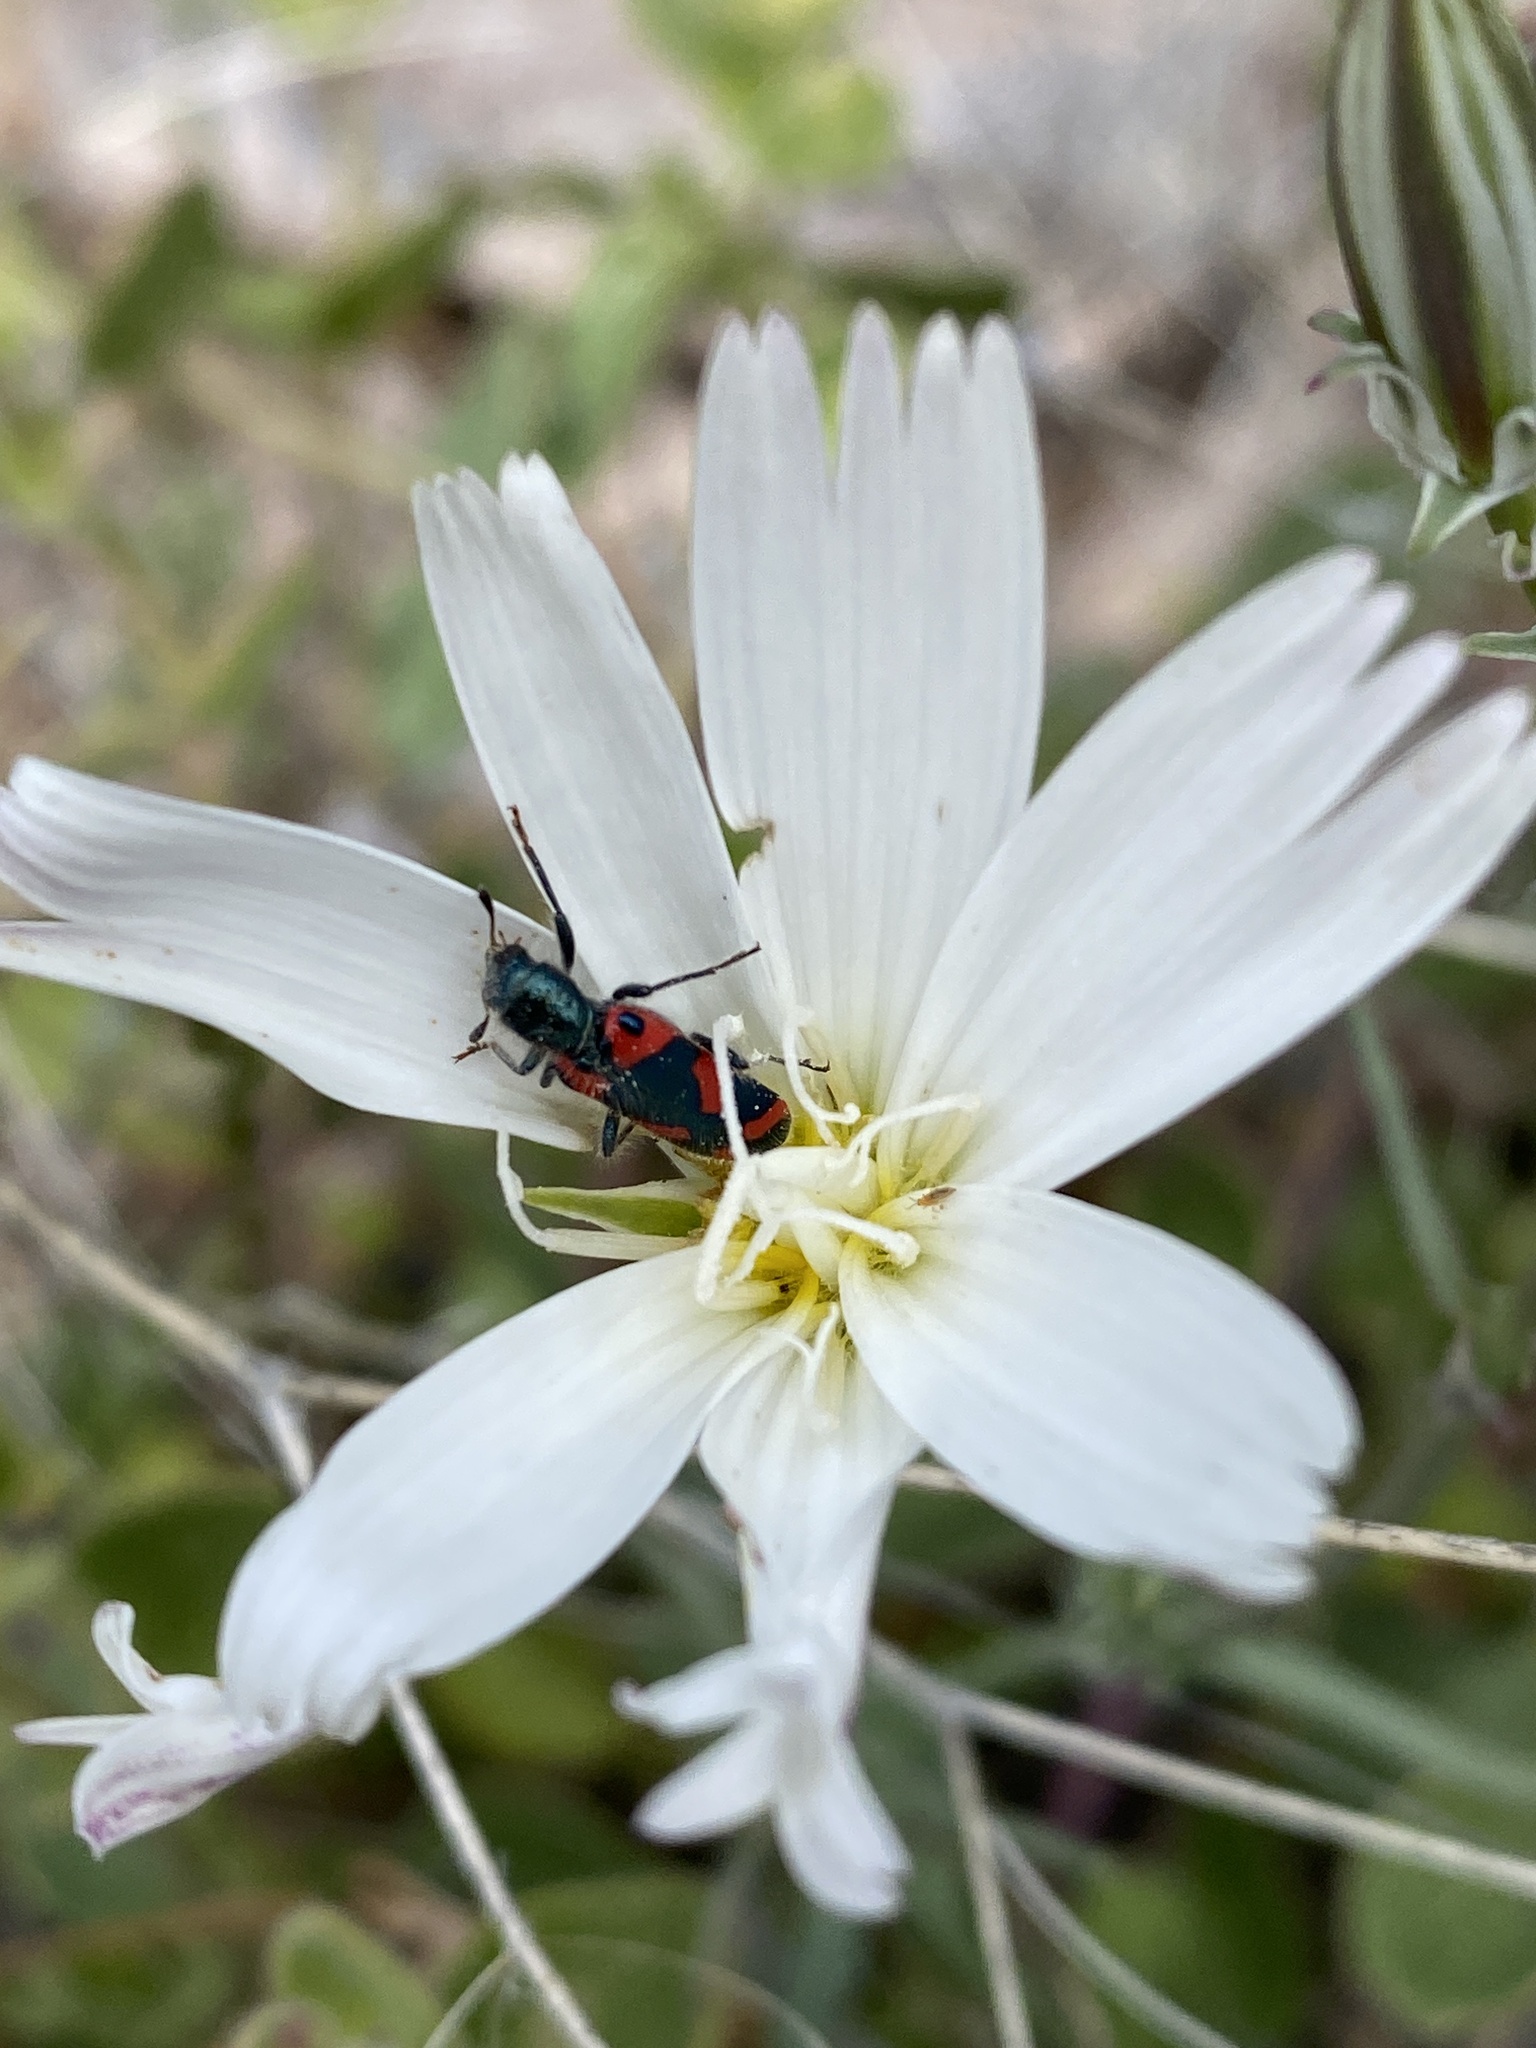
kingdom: Animalia
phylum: Arthropoda
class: Insecta
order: Coleoptera
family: Cleridae
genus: Trichodes
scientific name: Trichodes ornatus
